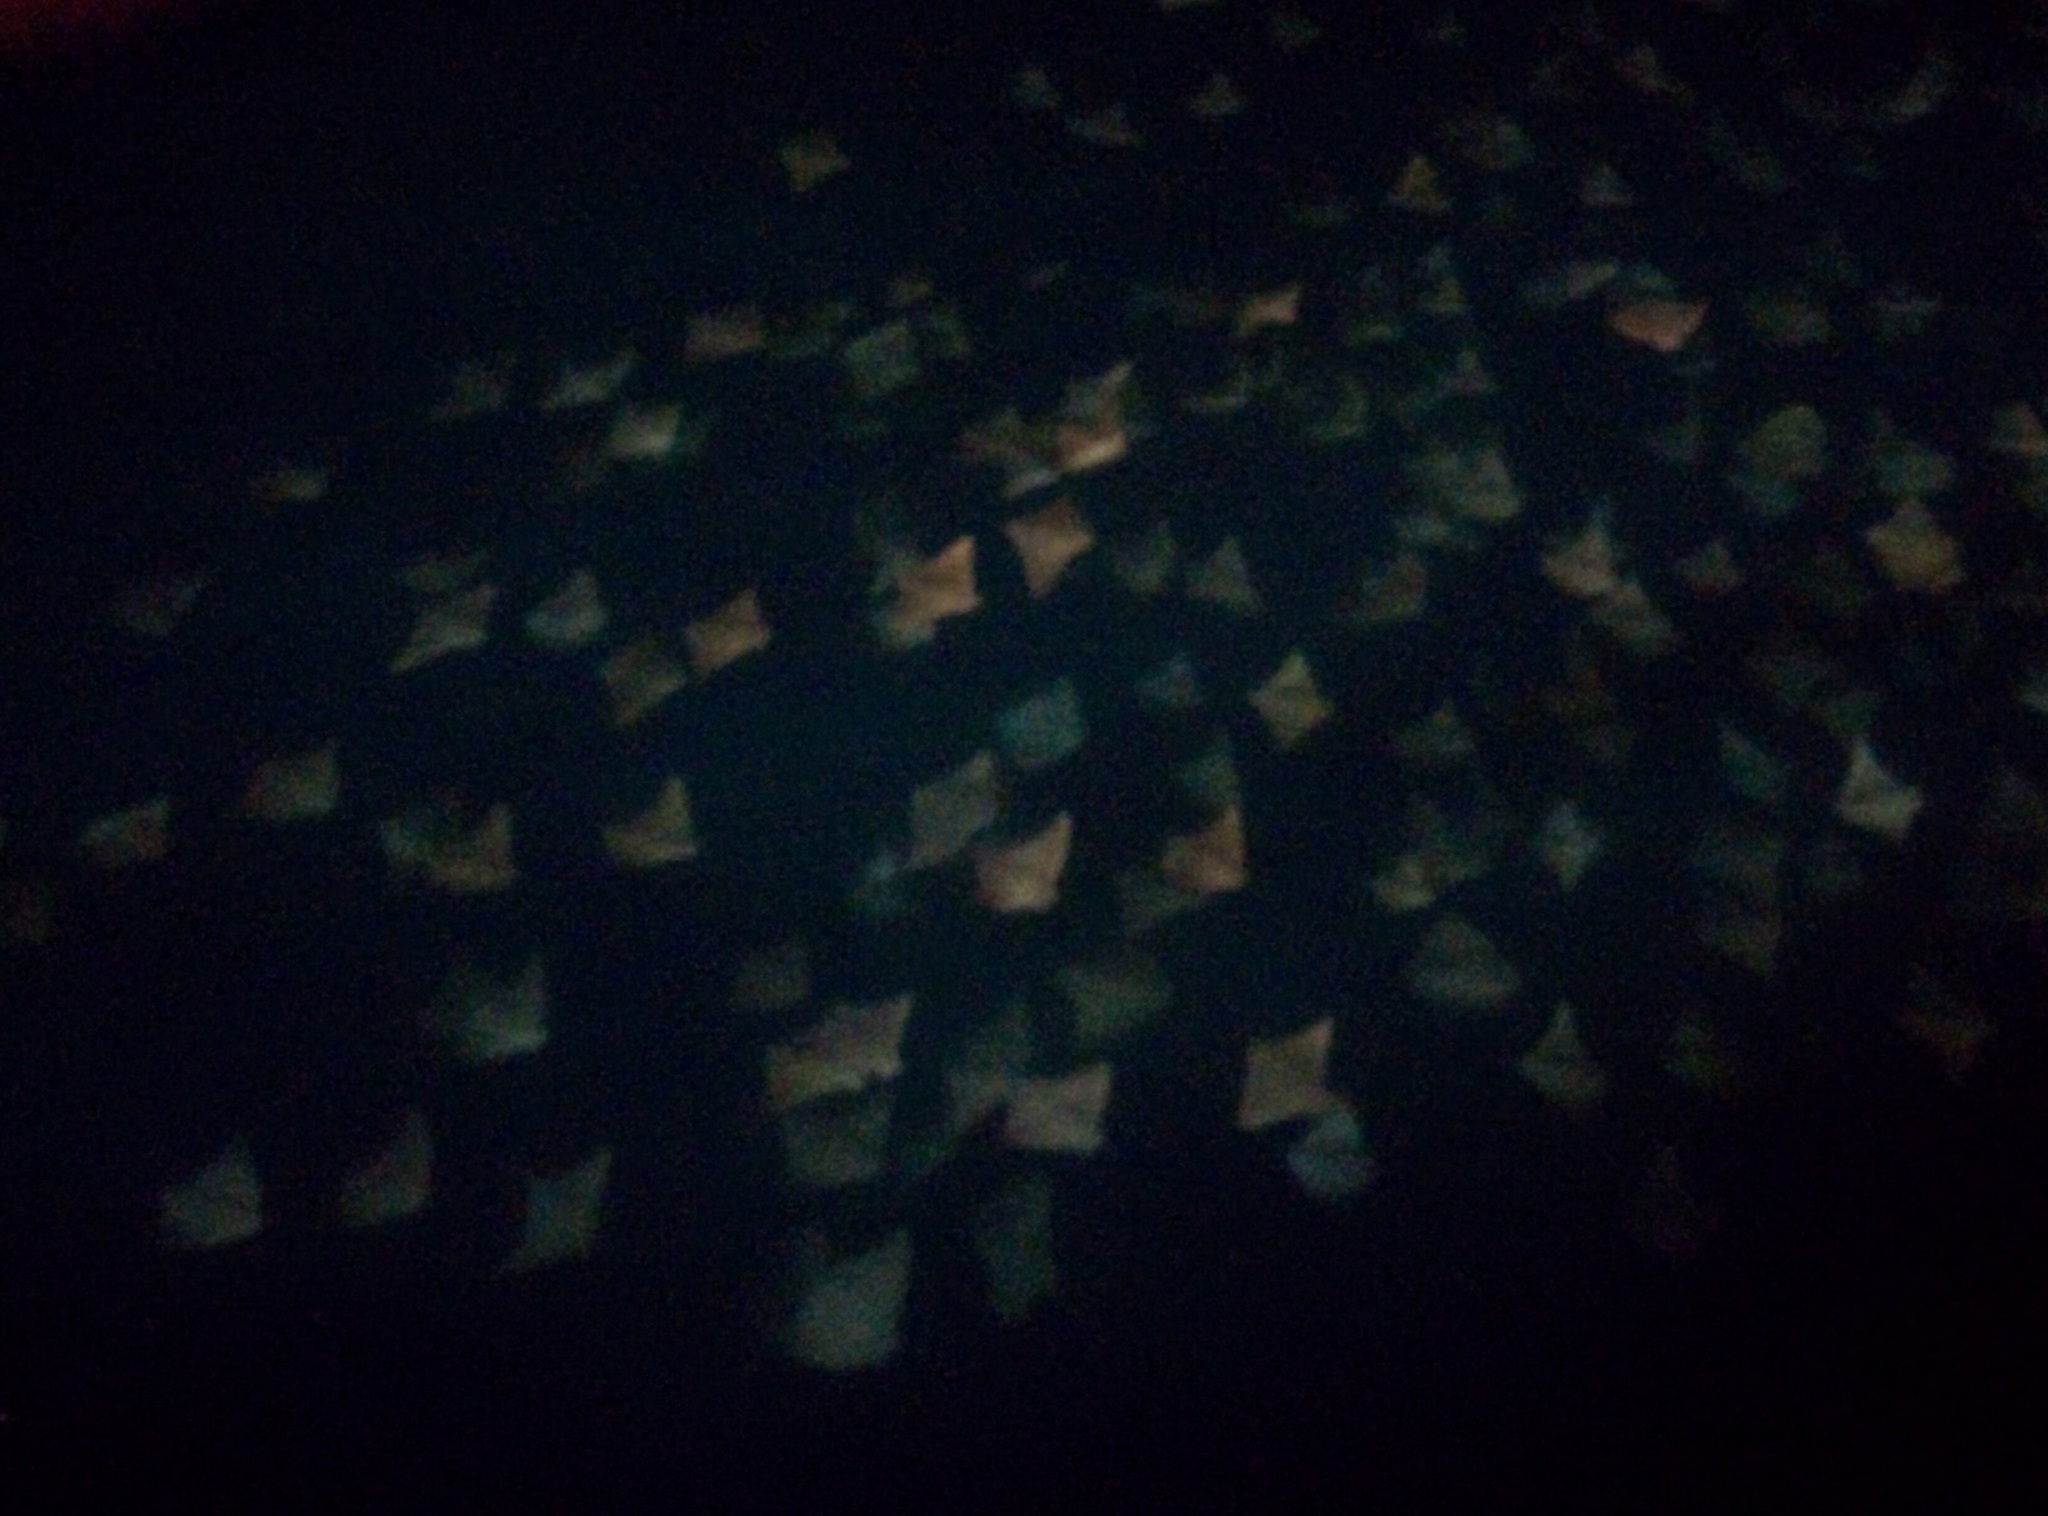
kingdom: Animalia
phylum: Chordata
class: Elasmobranchii
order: Myliobatiformes
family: Myliobatidae
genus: Rhinoptera
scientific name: Rhinoptera steindachneri
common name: Golden cownose ray
